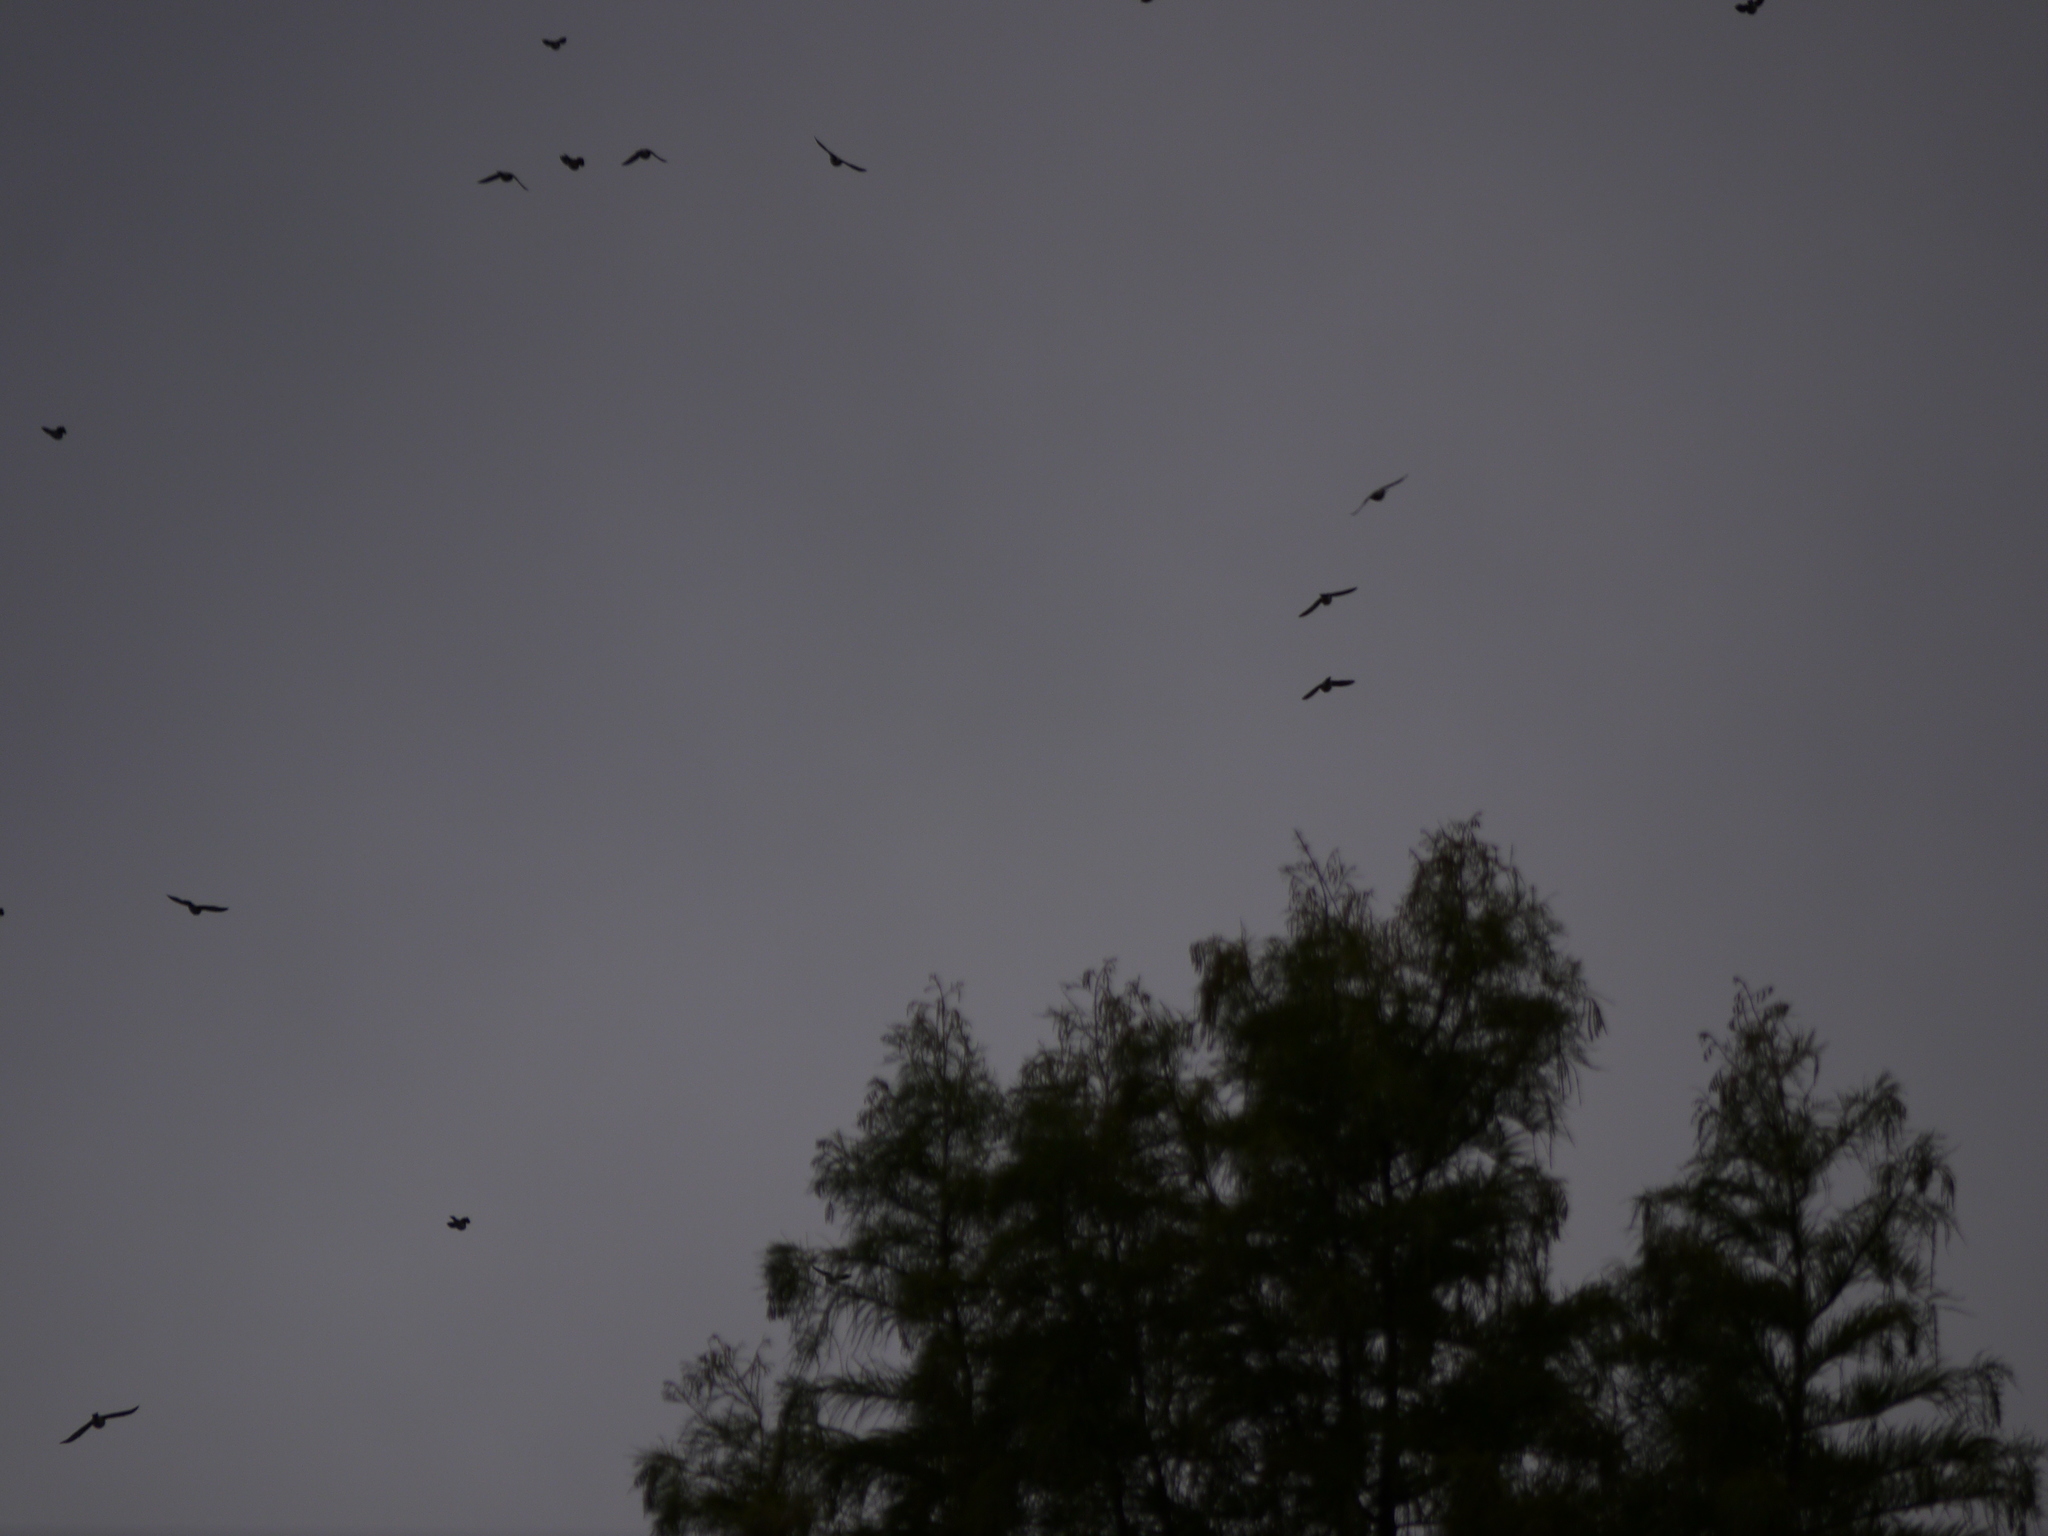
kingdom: Animalia
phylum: Chordata
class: Aves
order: Passeriformes
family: Turdidae
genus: Turdus
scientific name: Turdus pilaris
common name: Fieldfare
